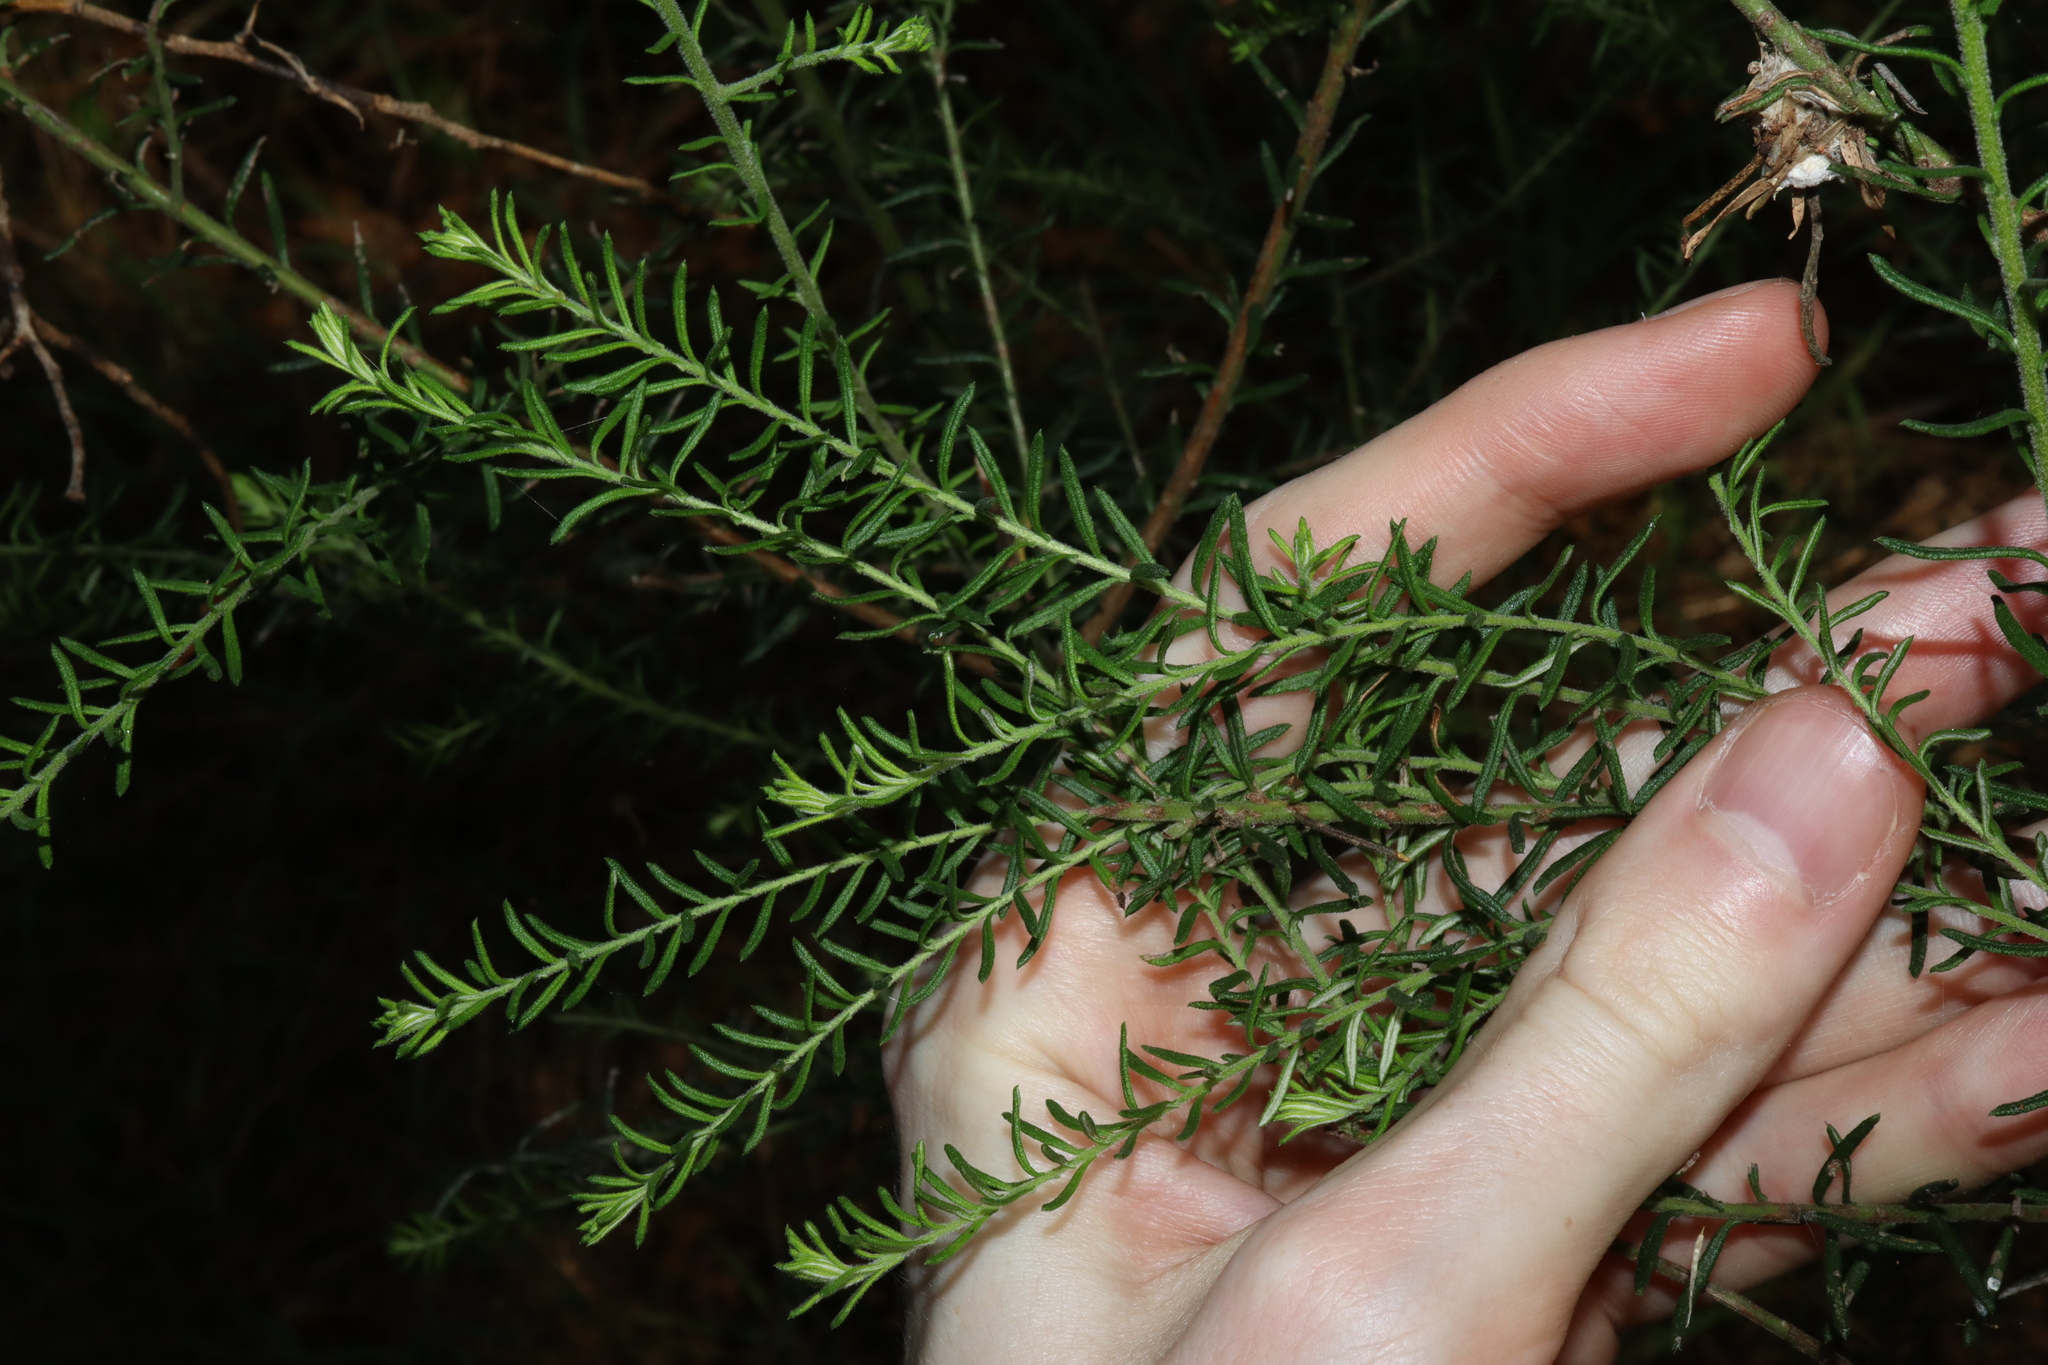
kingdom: Plantae
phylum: Tracheophyta
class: Magnoliopsida
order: Asterales
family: Asteraceae
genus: Ozothamnus
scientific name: Ozothamnus diosmifolius
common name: White-dogwood
